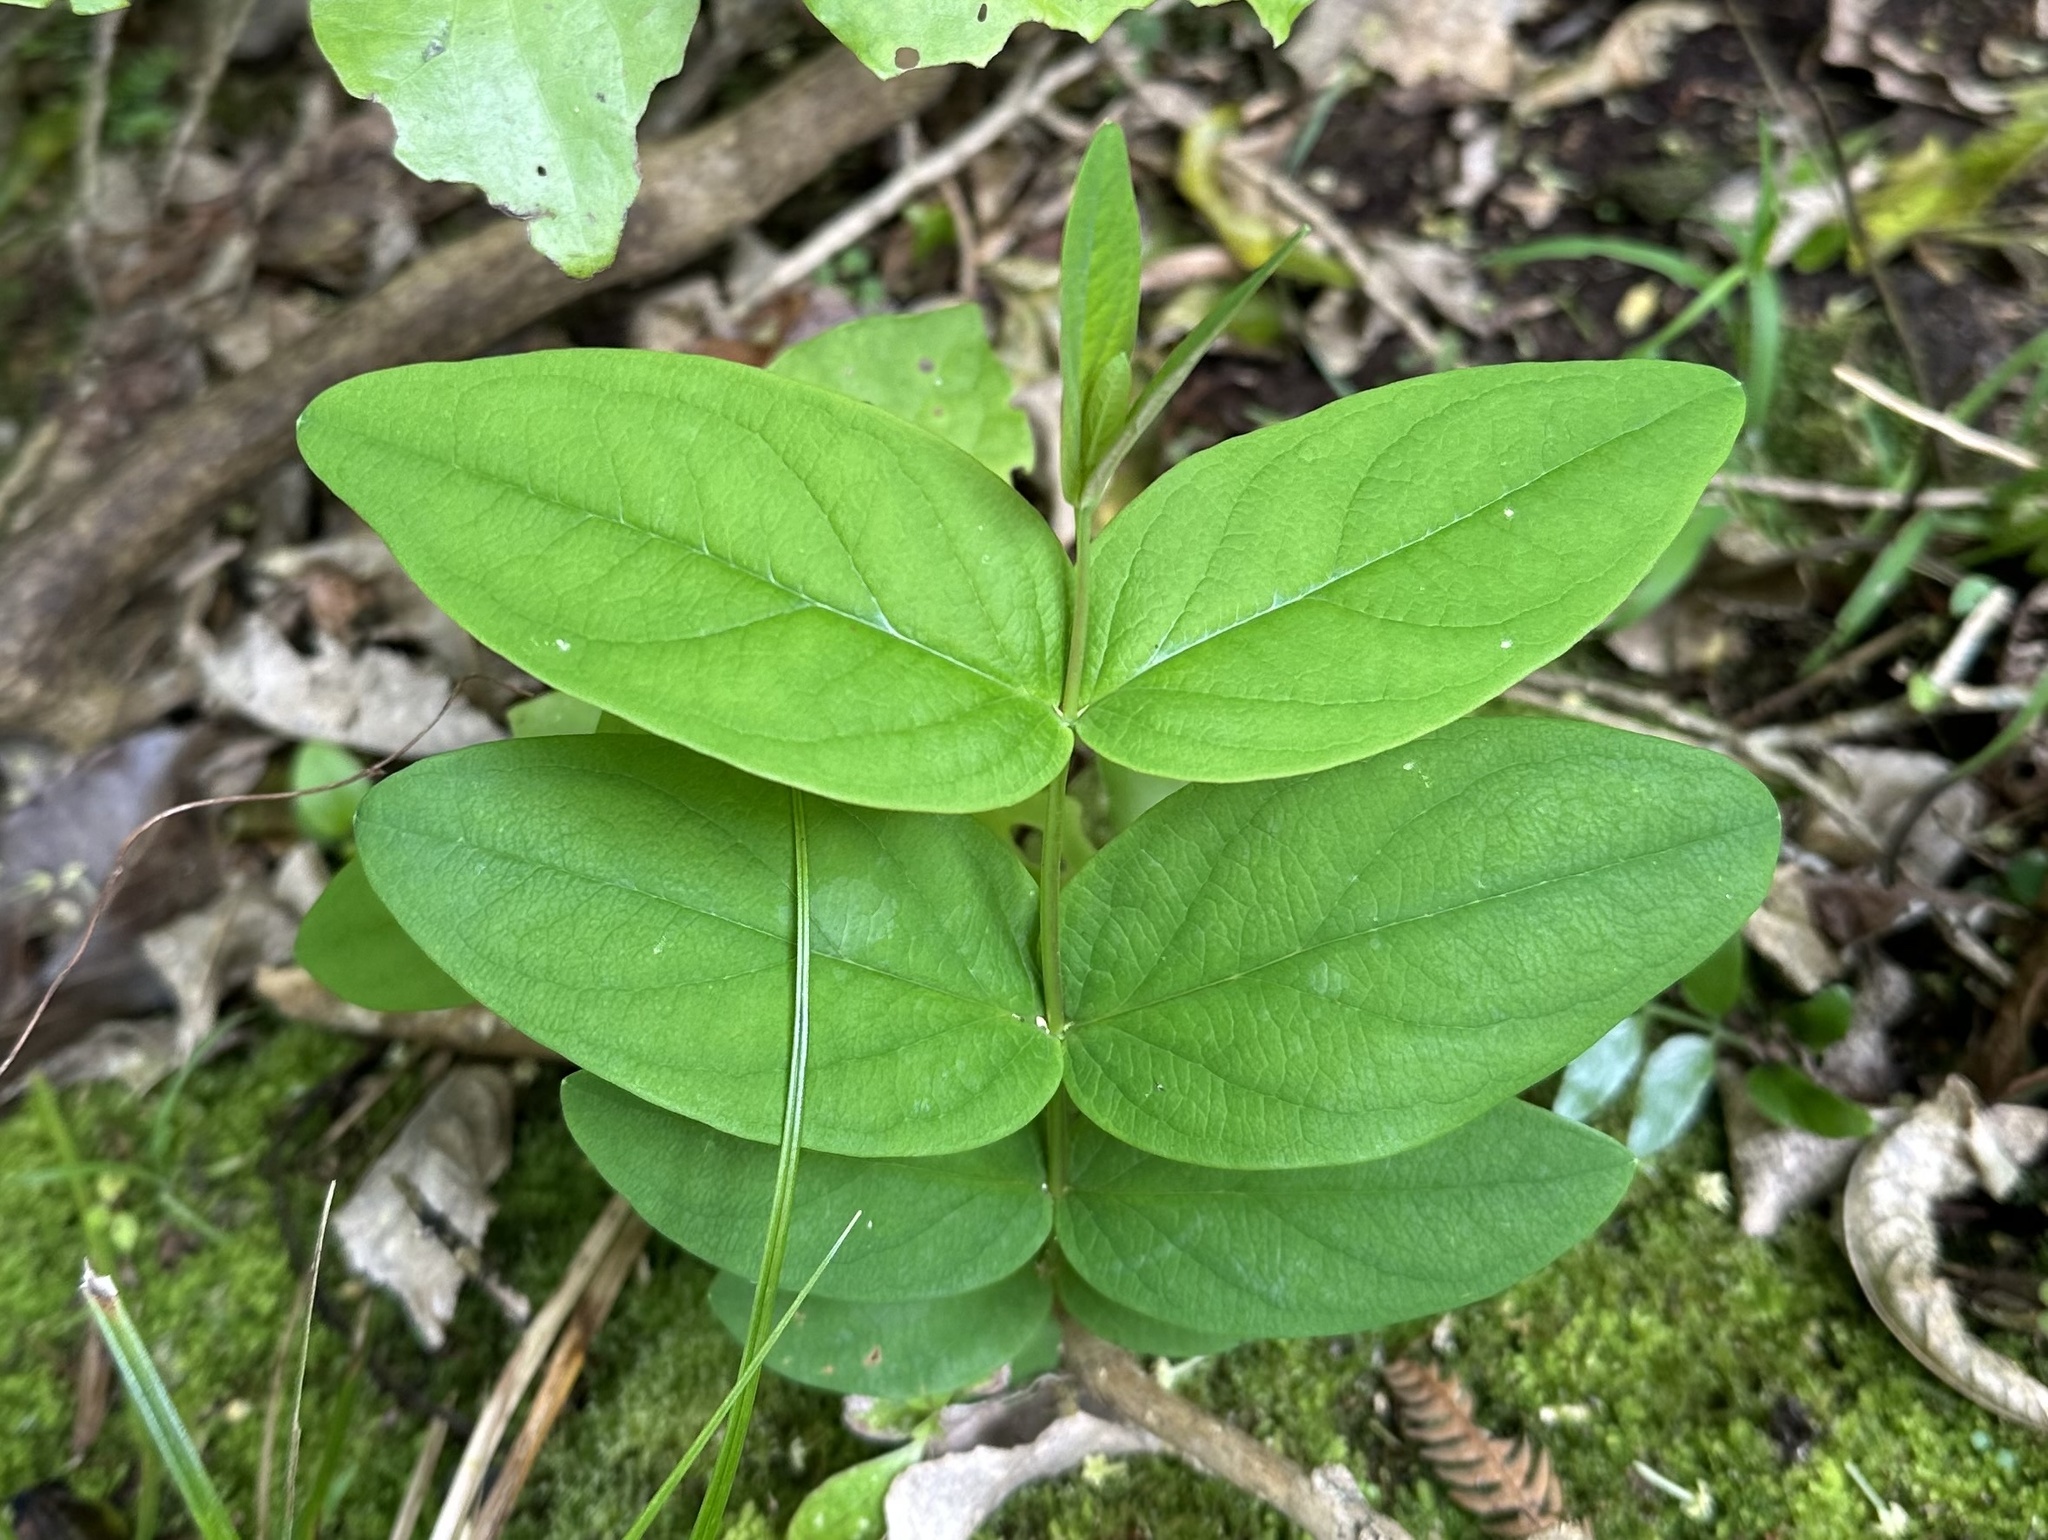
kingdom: Plantae
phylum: Tracheophyta
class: Magnoliopsida
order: Malpighiales
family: Hypericaceae
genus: Hypericum
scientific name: Hypericum androsaemum
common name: Sweet-amber
